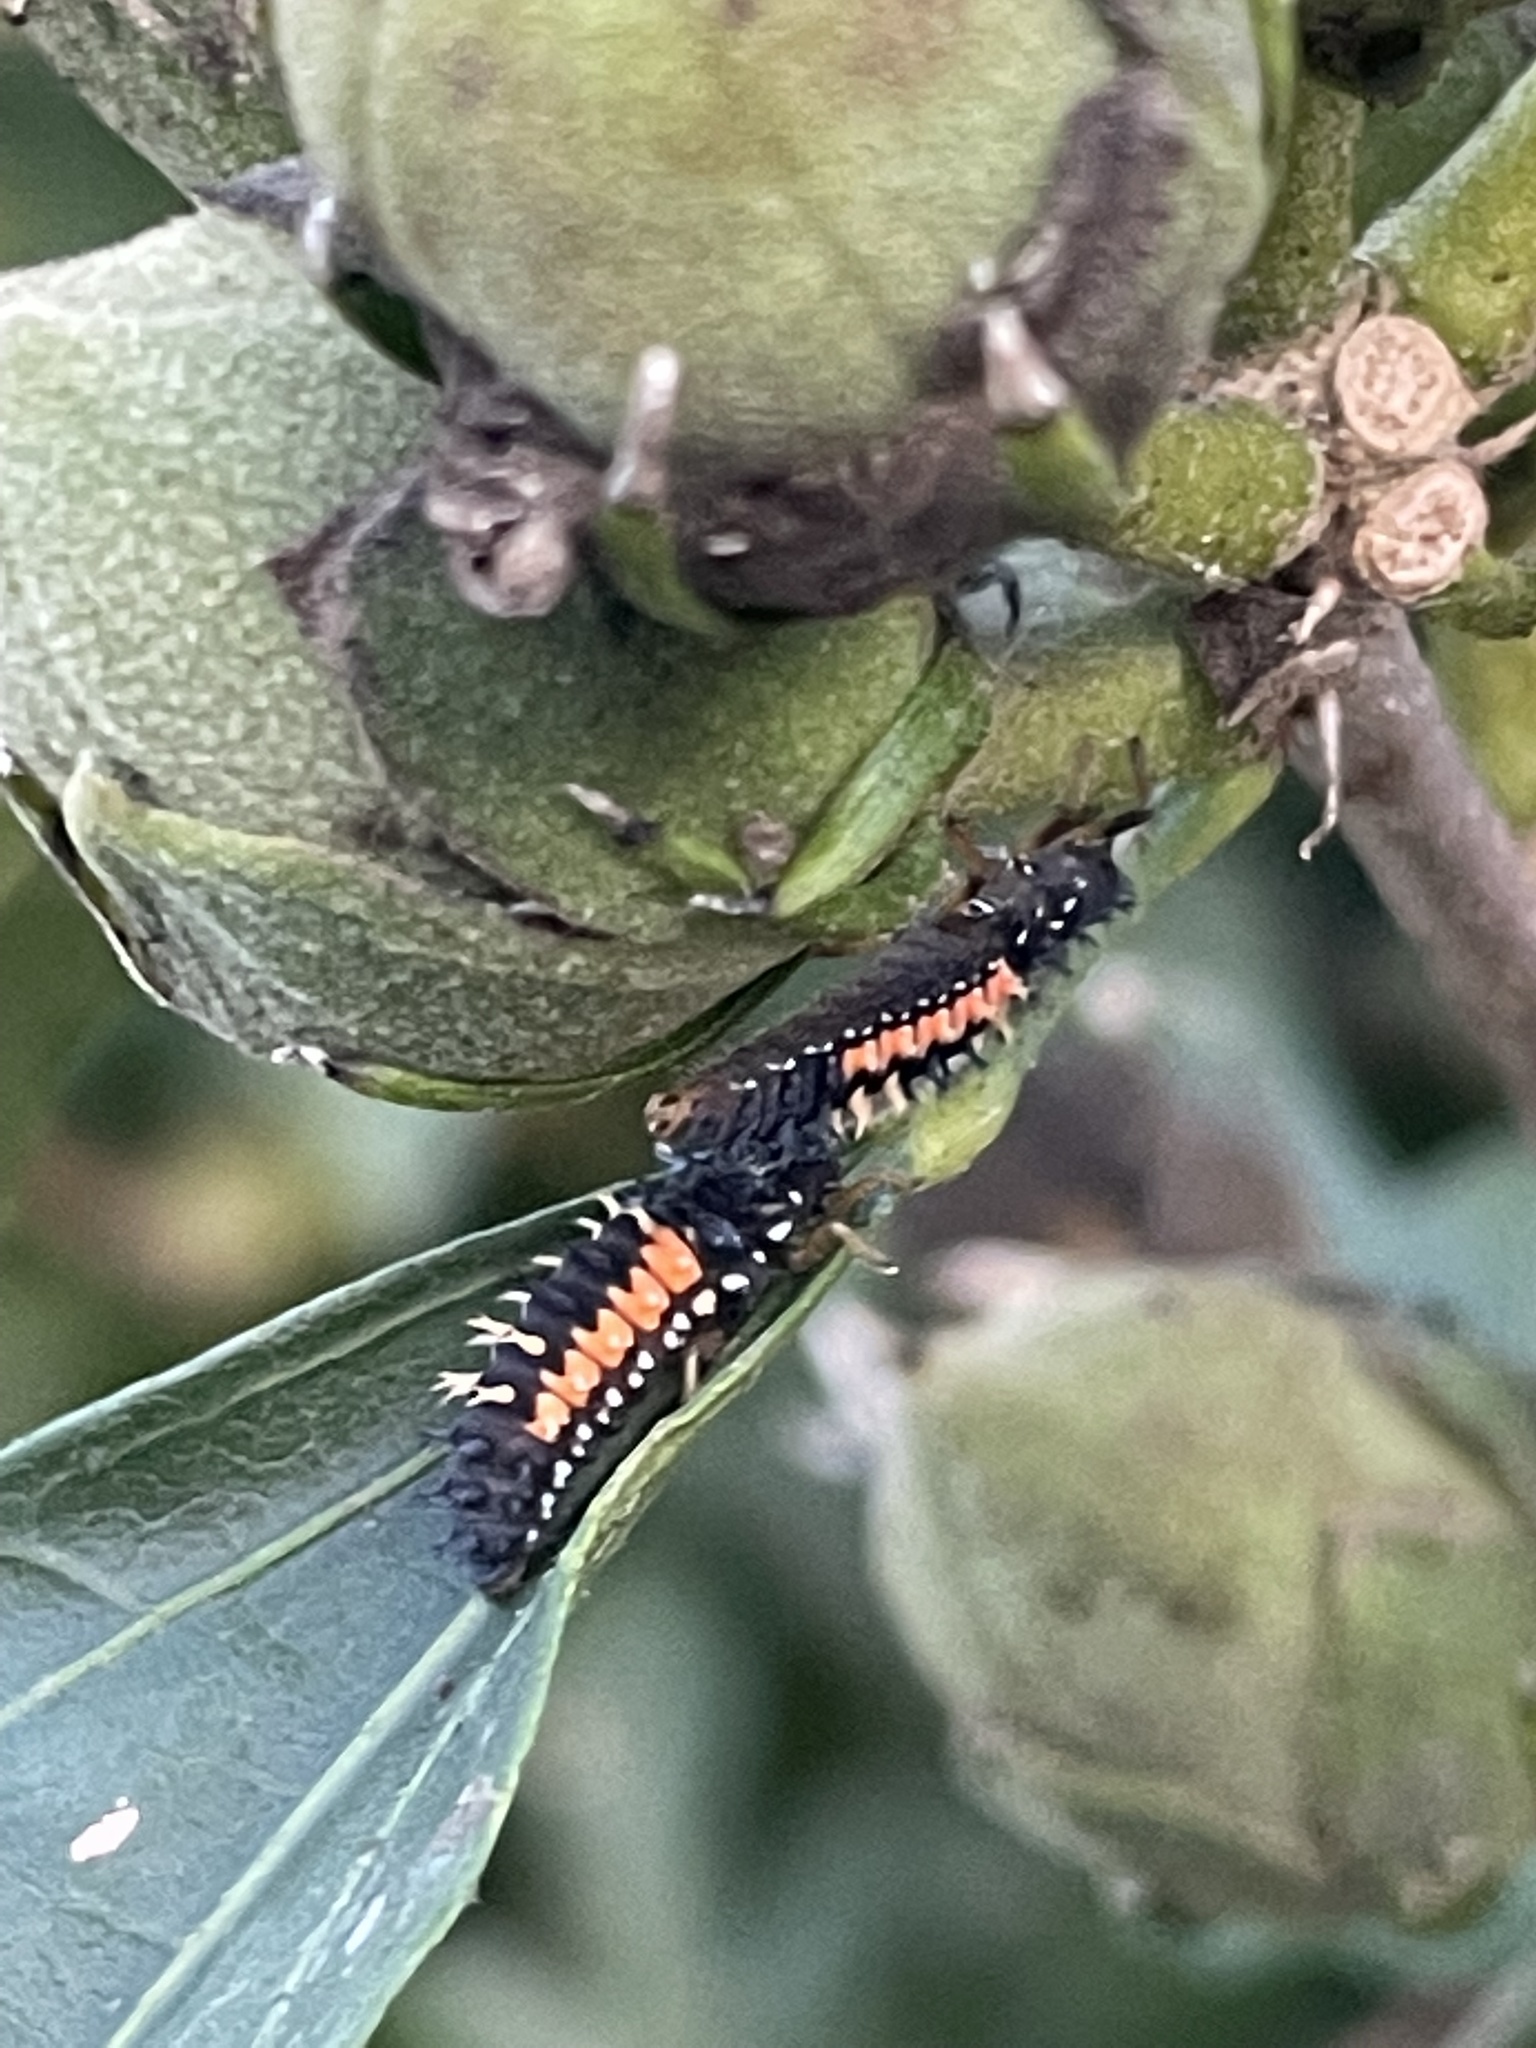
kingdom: Animalia
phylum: Arthropoda
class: Insecta
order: Coleoptera
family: Coccinellidae
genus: Harmonia
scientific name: Harmonia axyridis
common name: Harlequin ladybird
